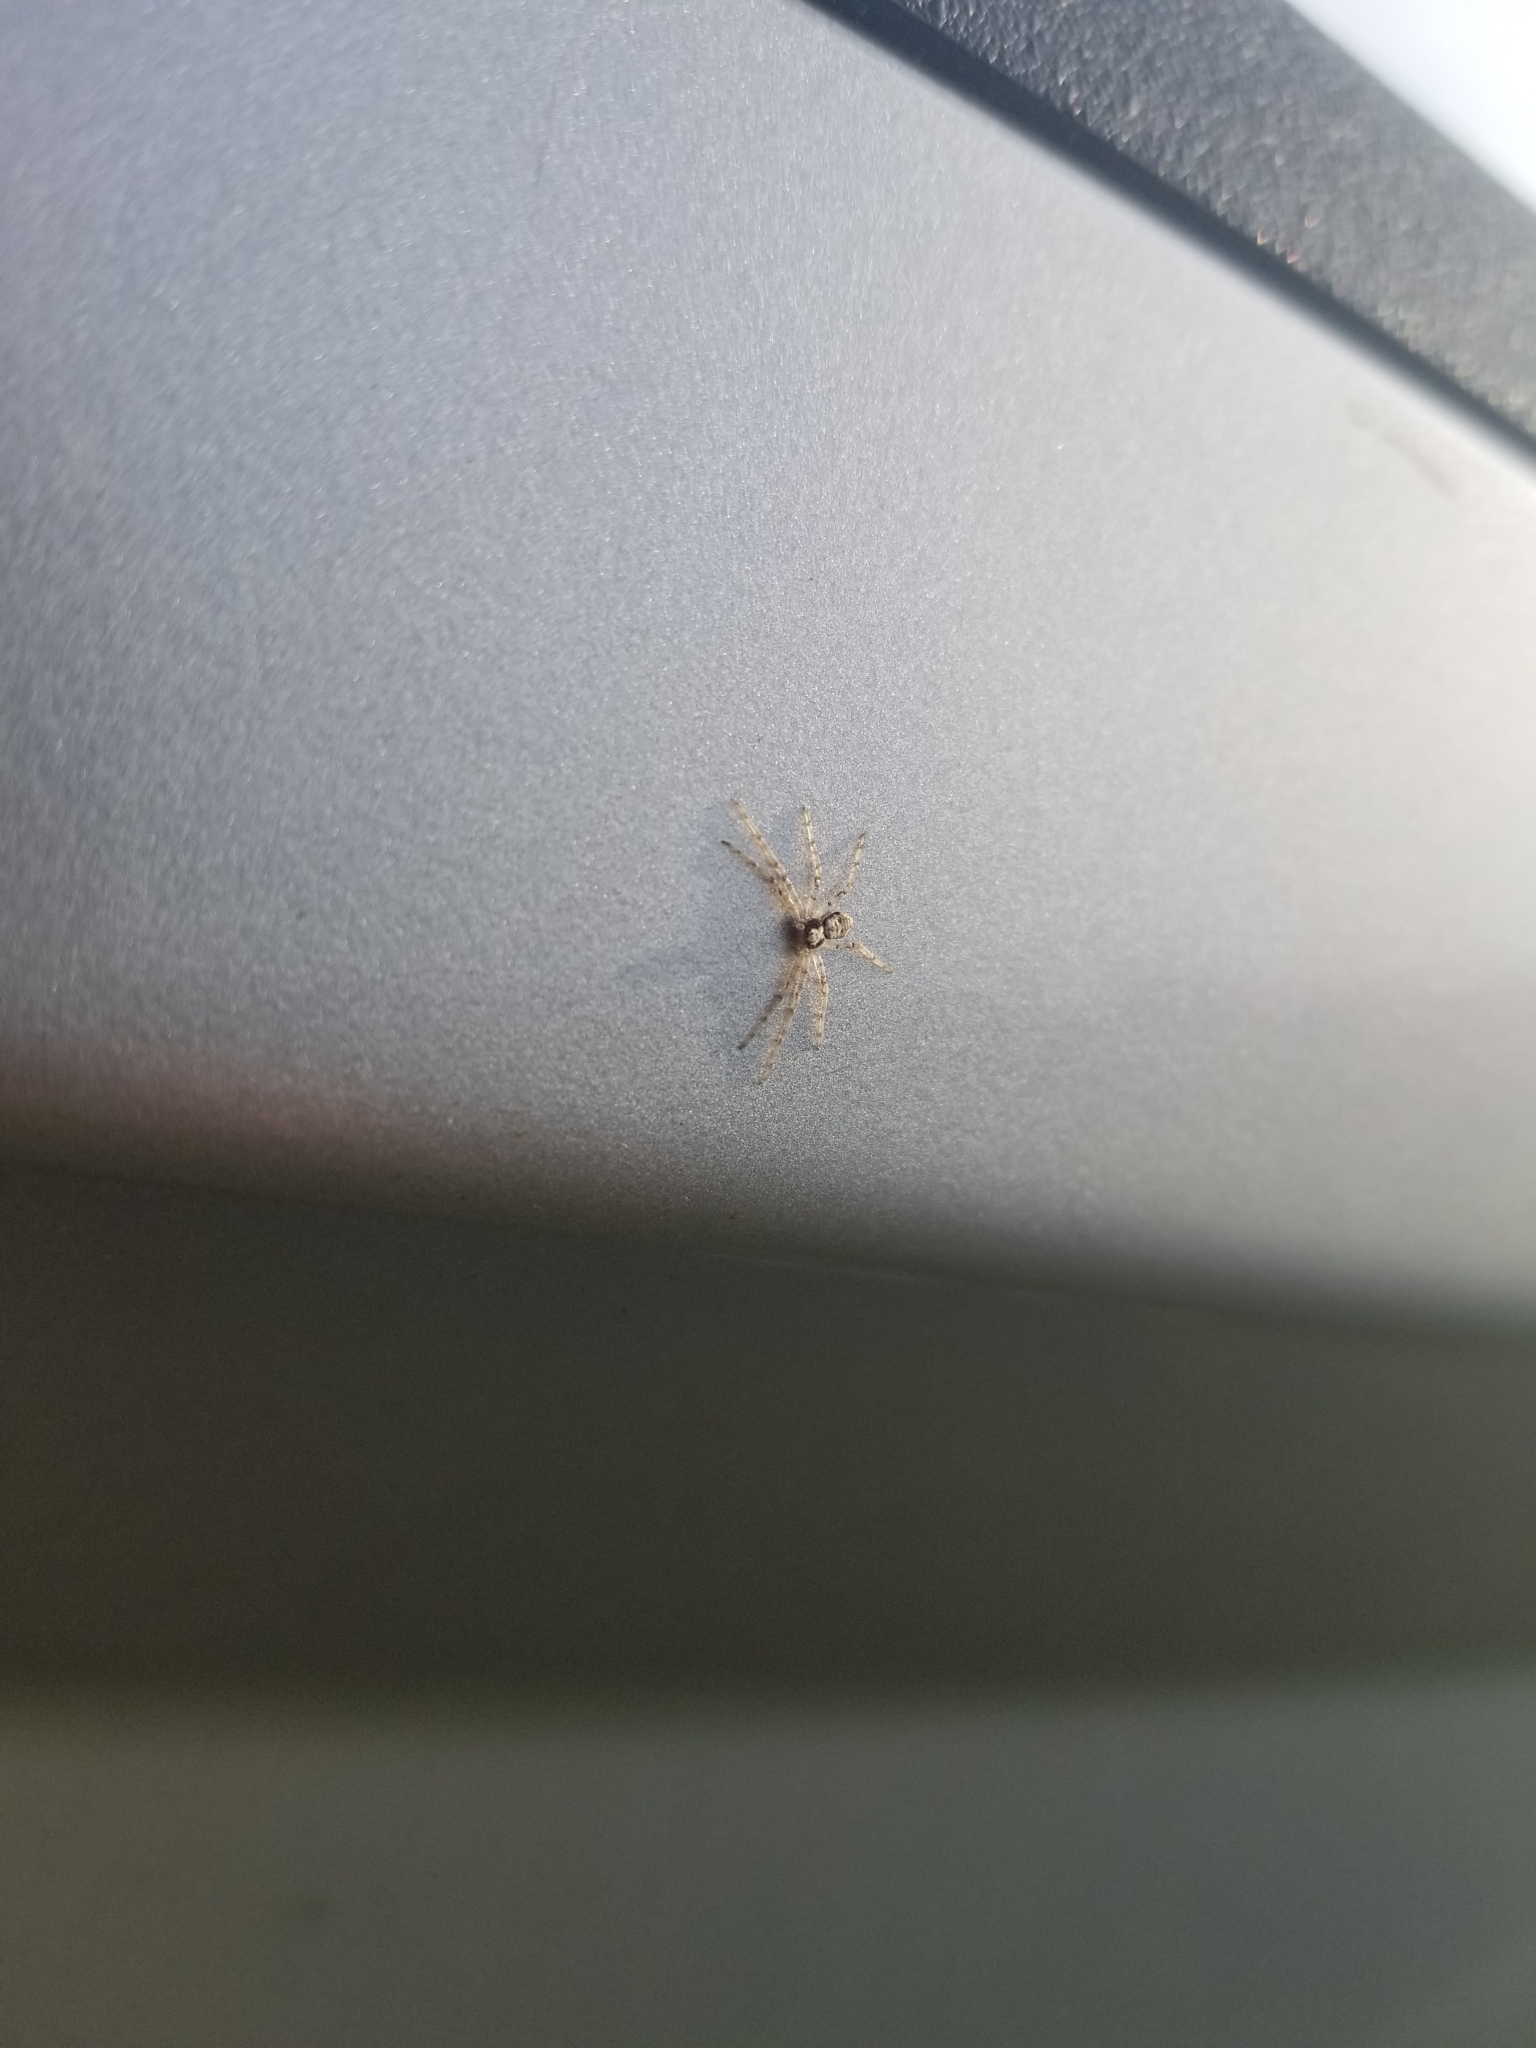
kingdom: Animalia
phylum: Arthropoda
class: Arachnida
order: Araneae
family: Philodromidae
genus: Philodromus
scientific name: Philodromus
